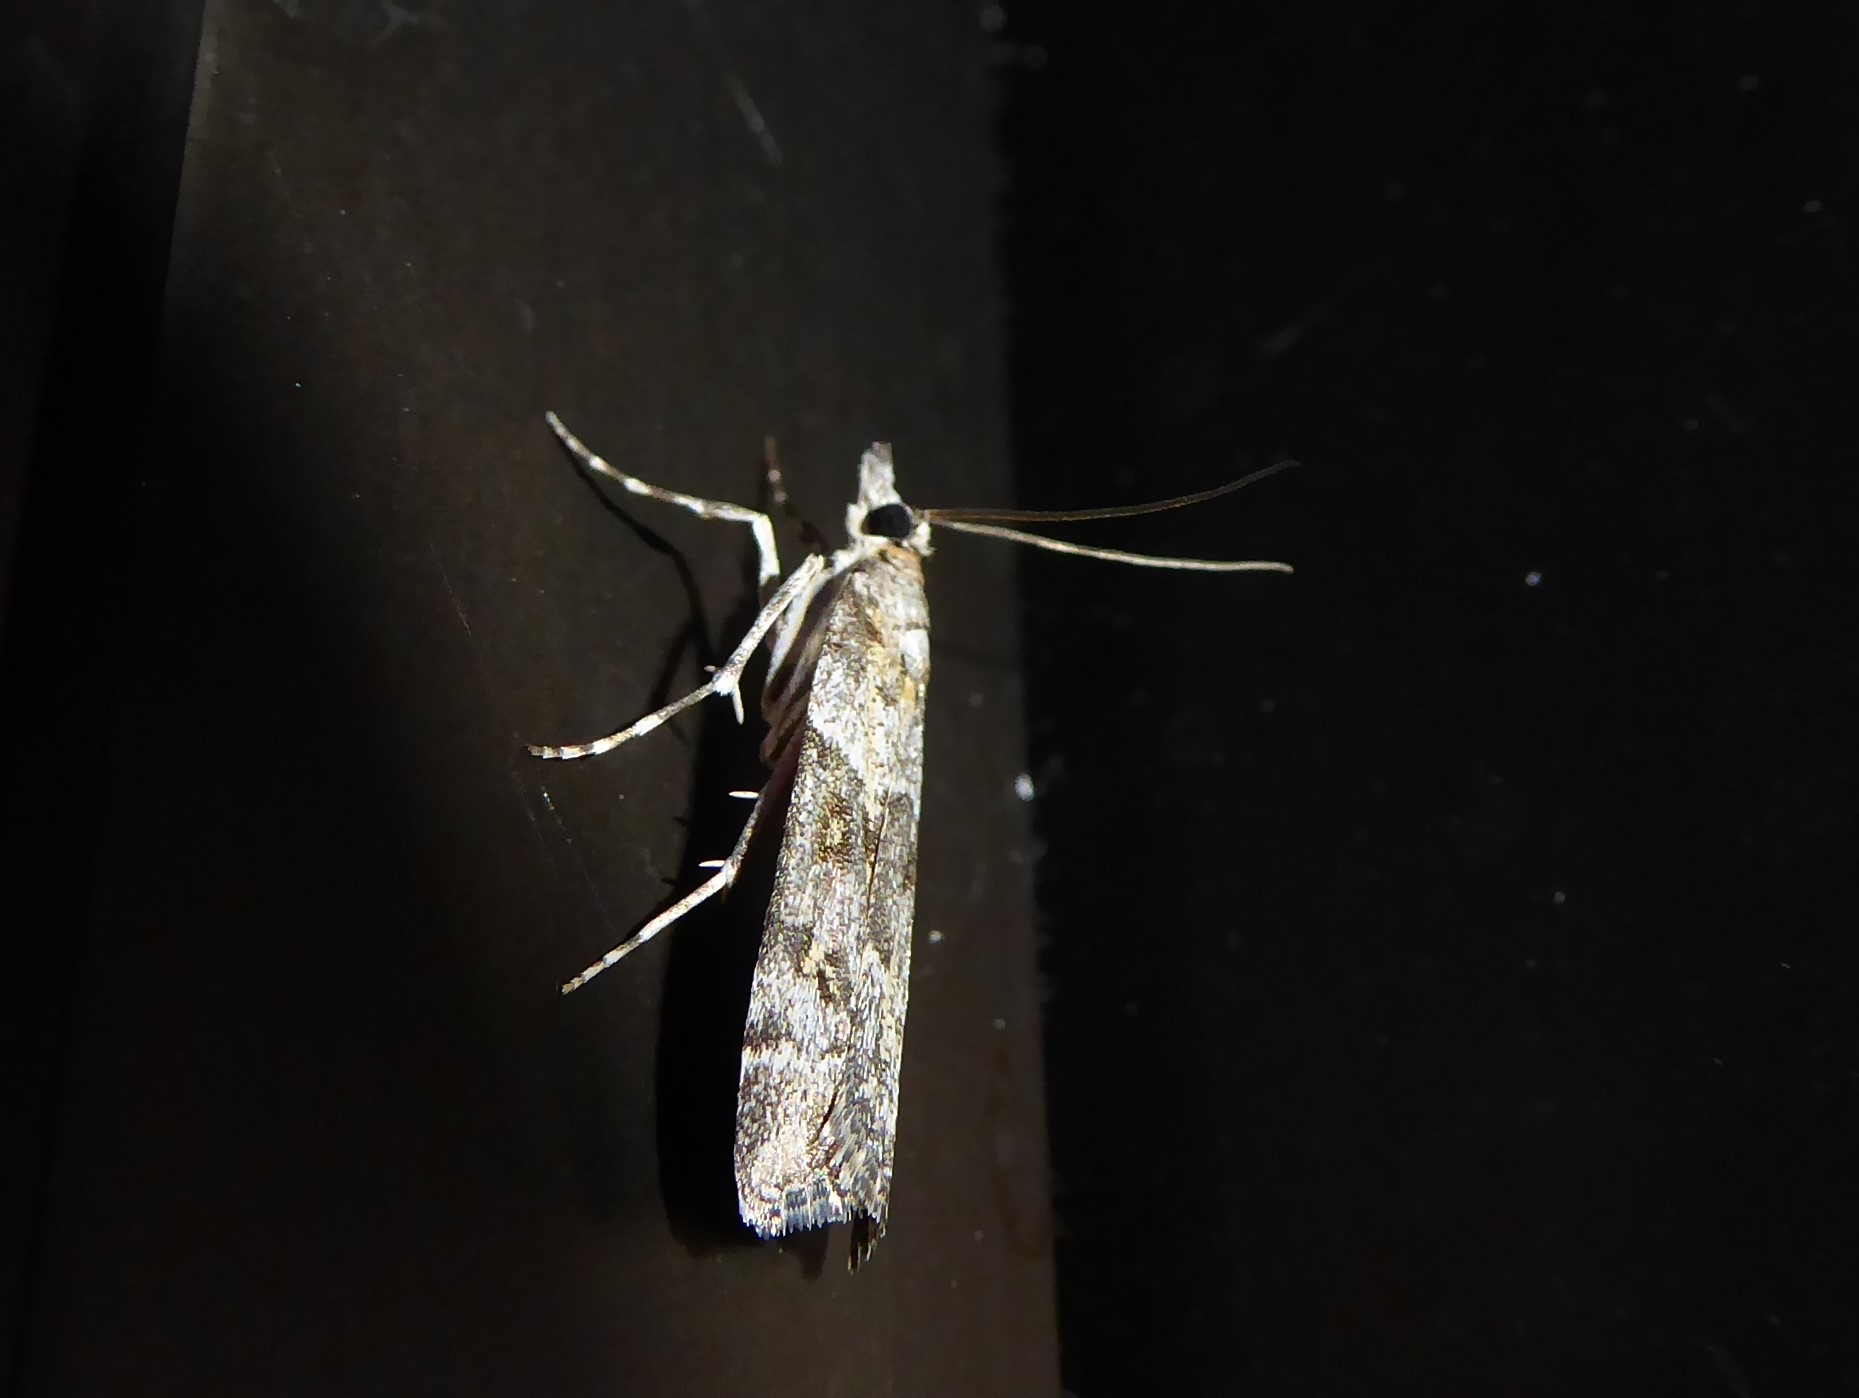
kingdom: Animalia
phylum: Arthropoda
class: Insecta
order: Lepidoptera
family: Crambidae
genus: Eudonia
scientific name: Eudonia diphtheralis
